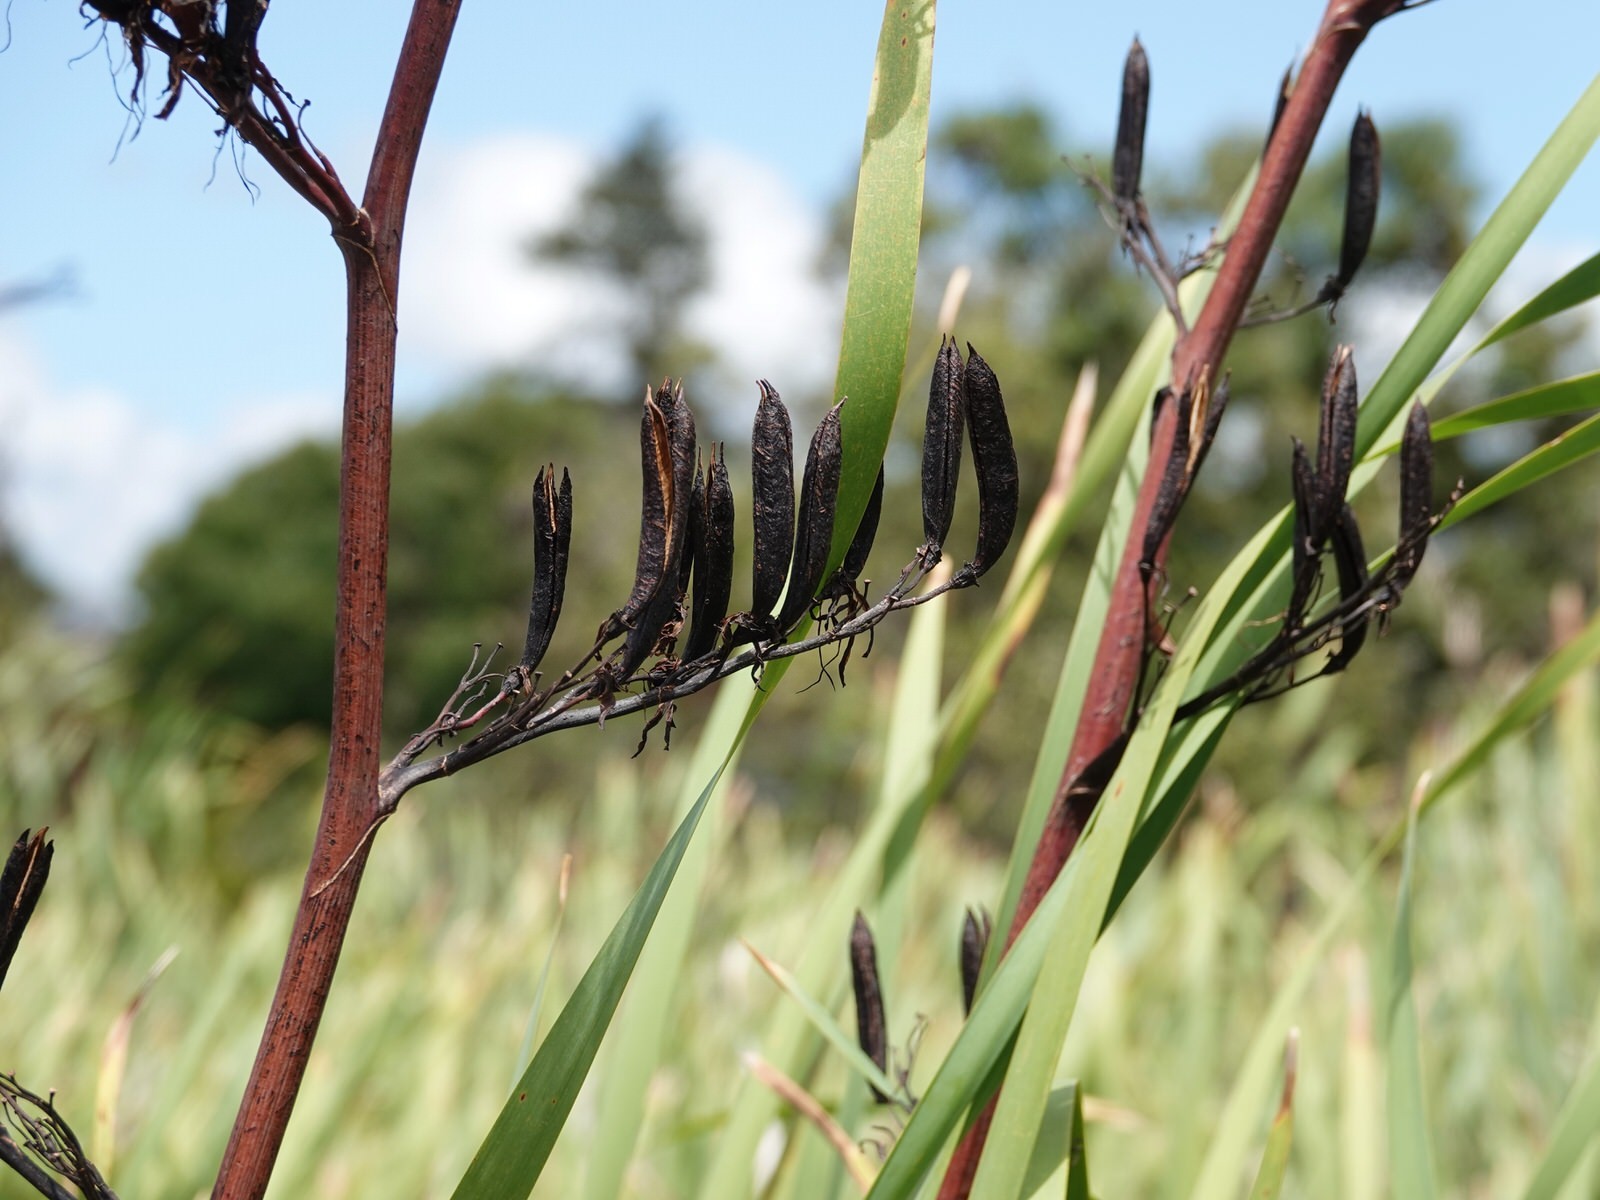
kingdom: Plantae
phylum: Tracheophyta
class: Liliopsida
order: Asparagales
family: Asphodelaceae
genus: Phormium
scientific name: Phormium tenax
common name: New zealand flax
